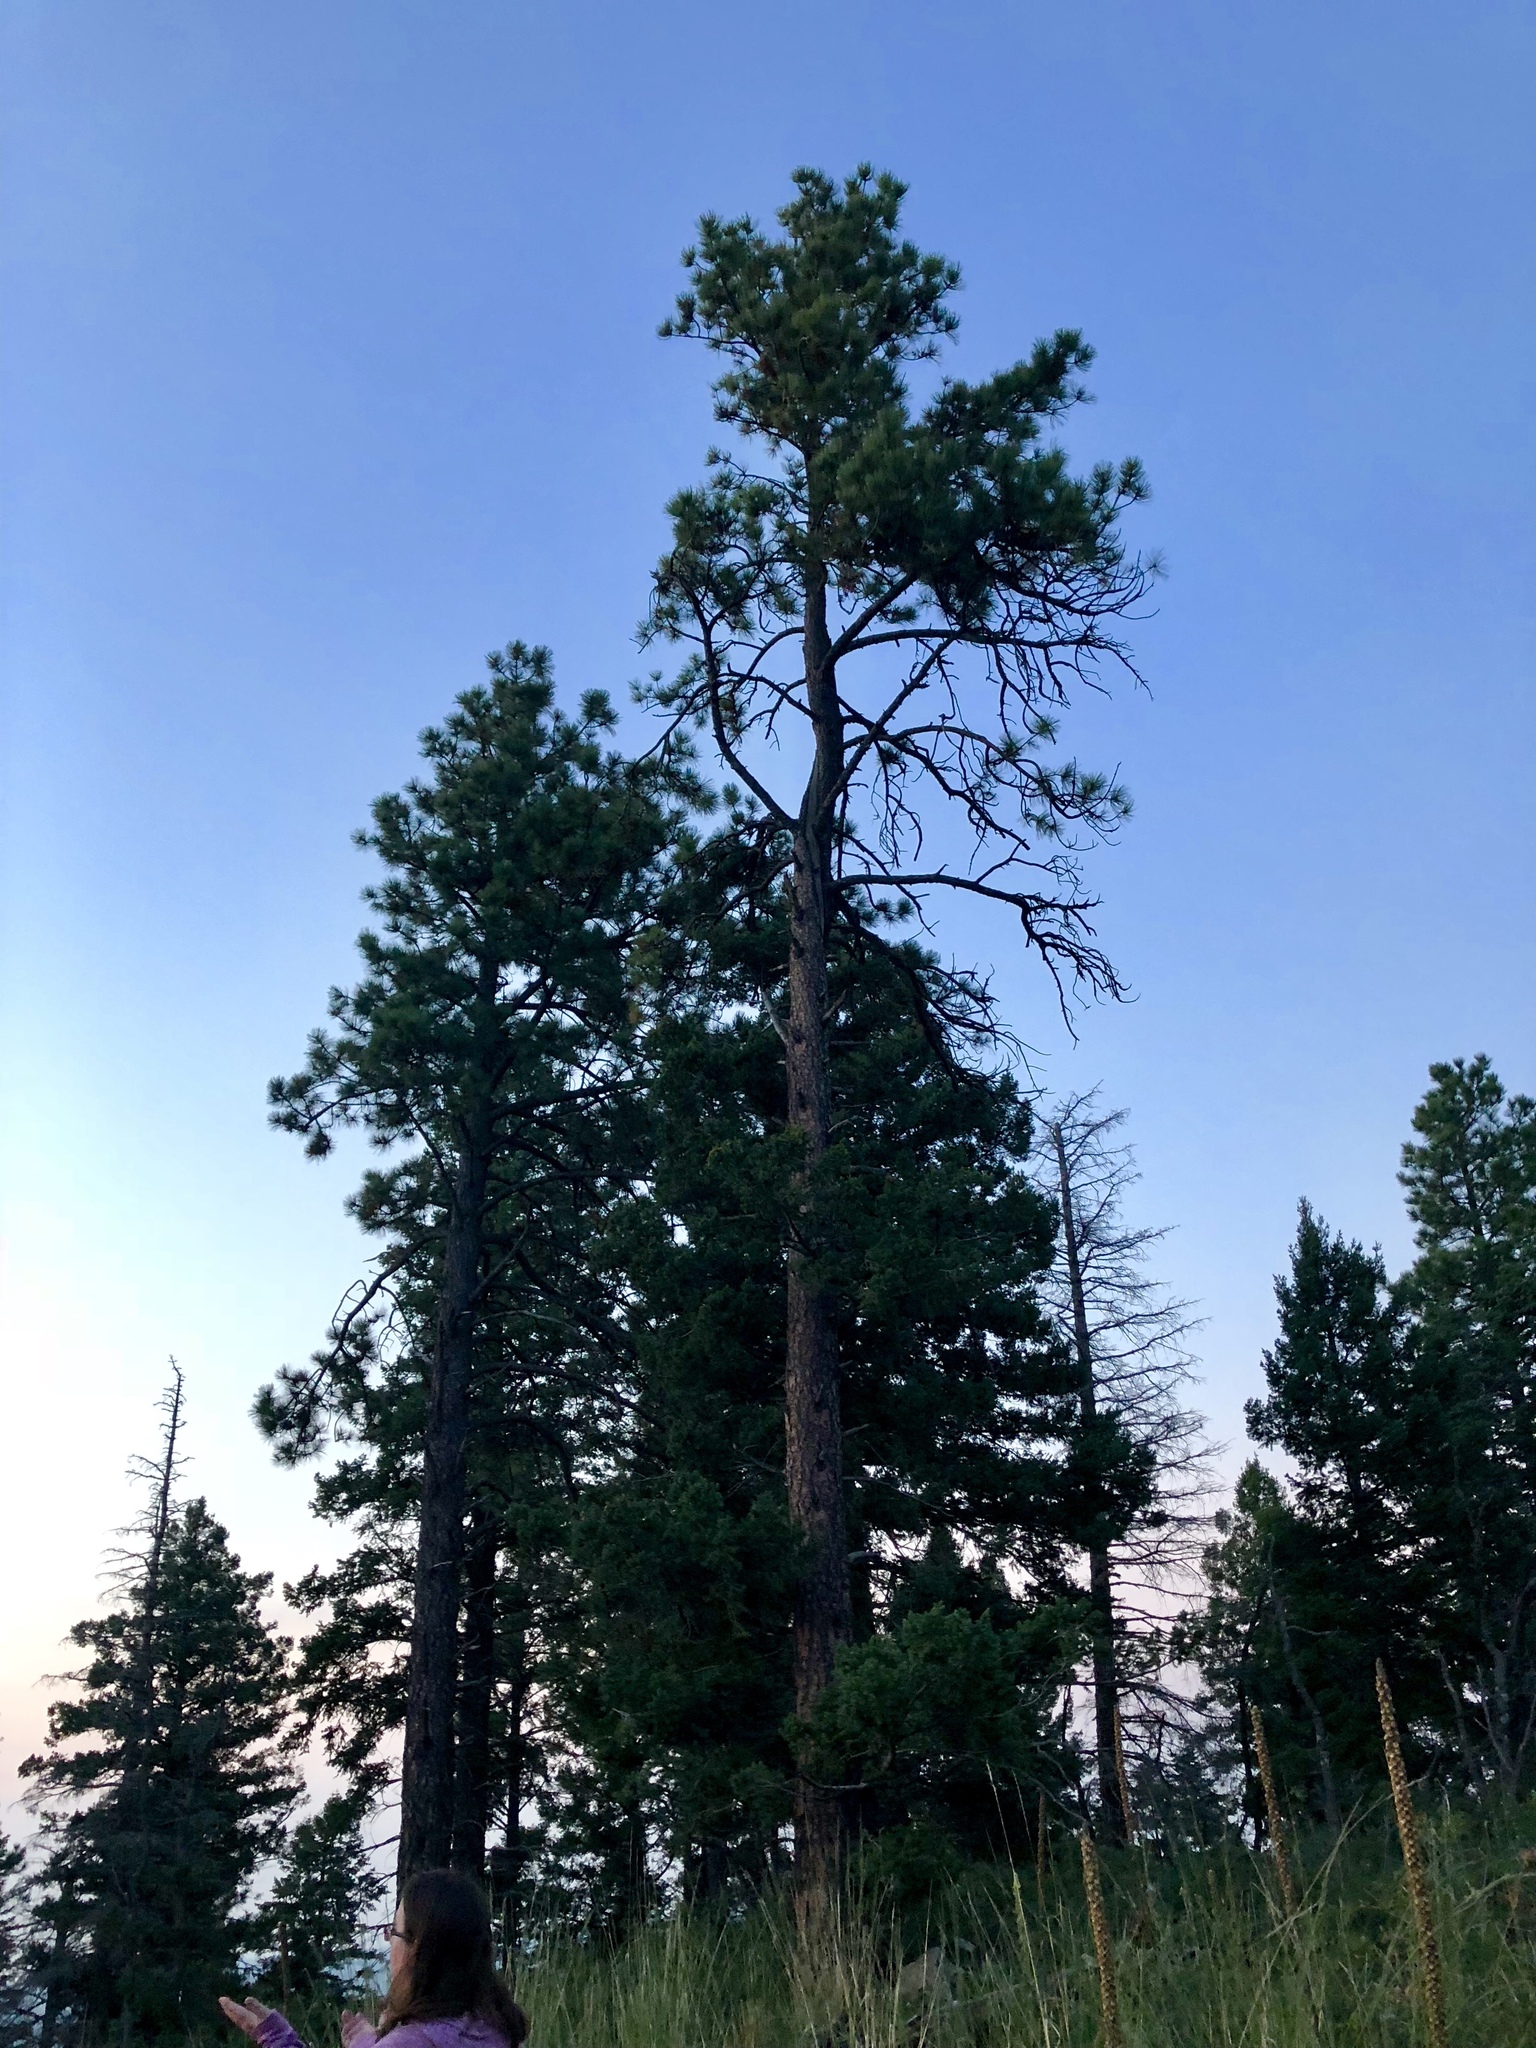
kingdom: Plantae
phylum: Tracheophyta
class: Pinopsida
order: Pinales
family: Pinaceae
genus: Pinus
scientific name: Pinus ponderosa
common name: Western yellow-pine
